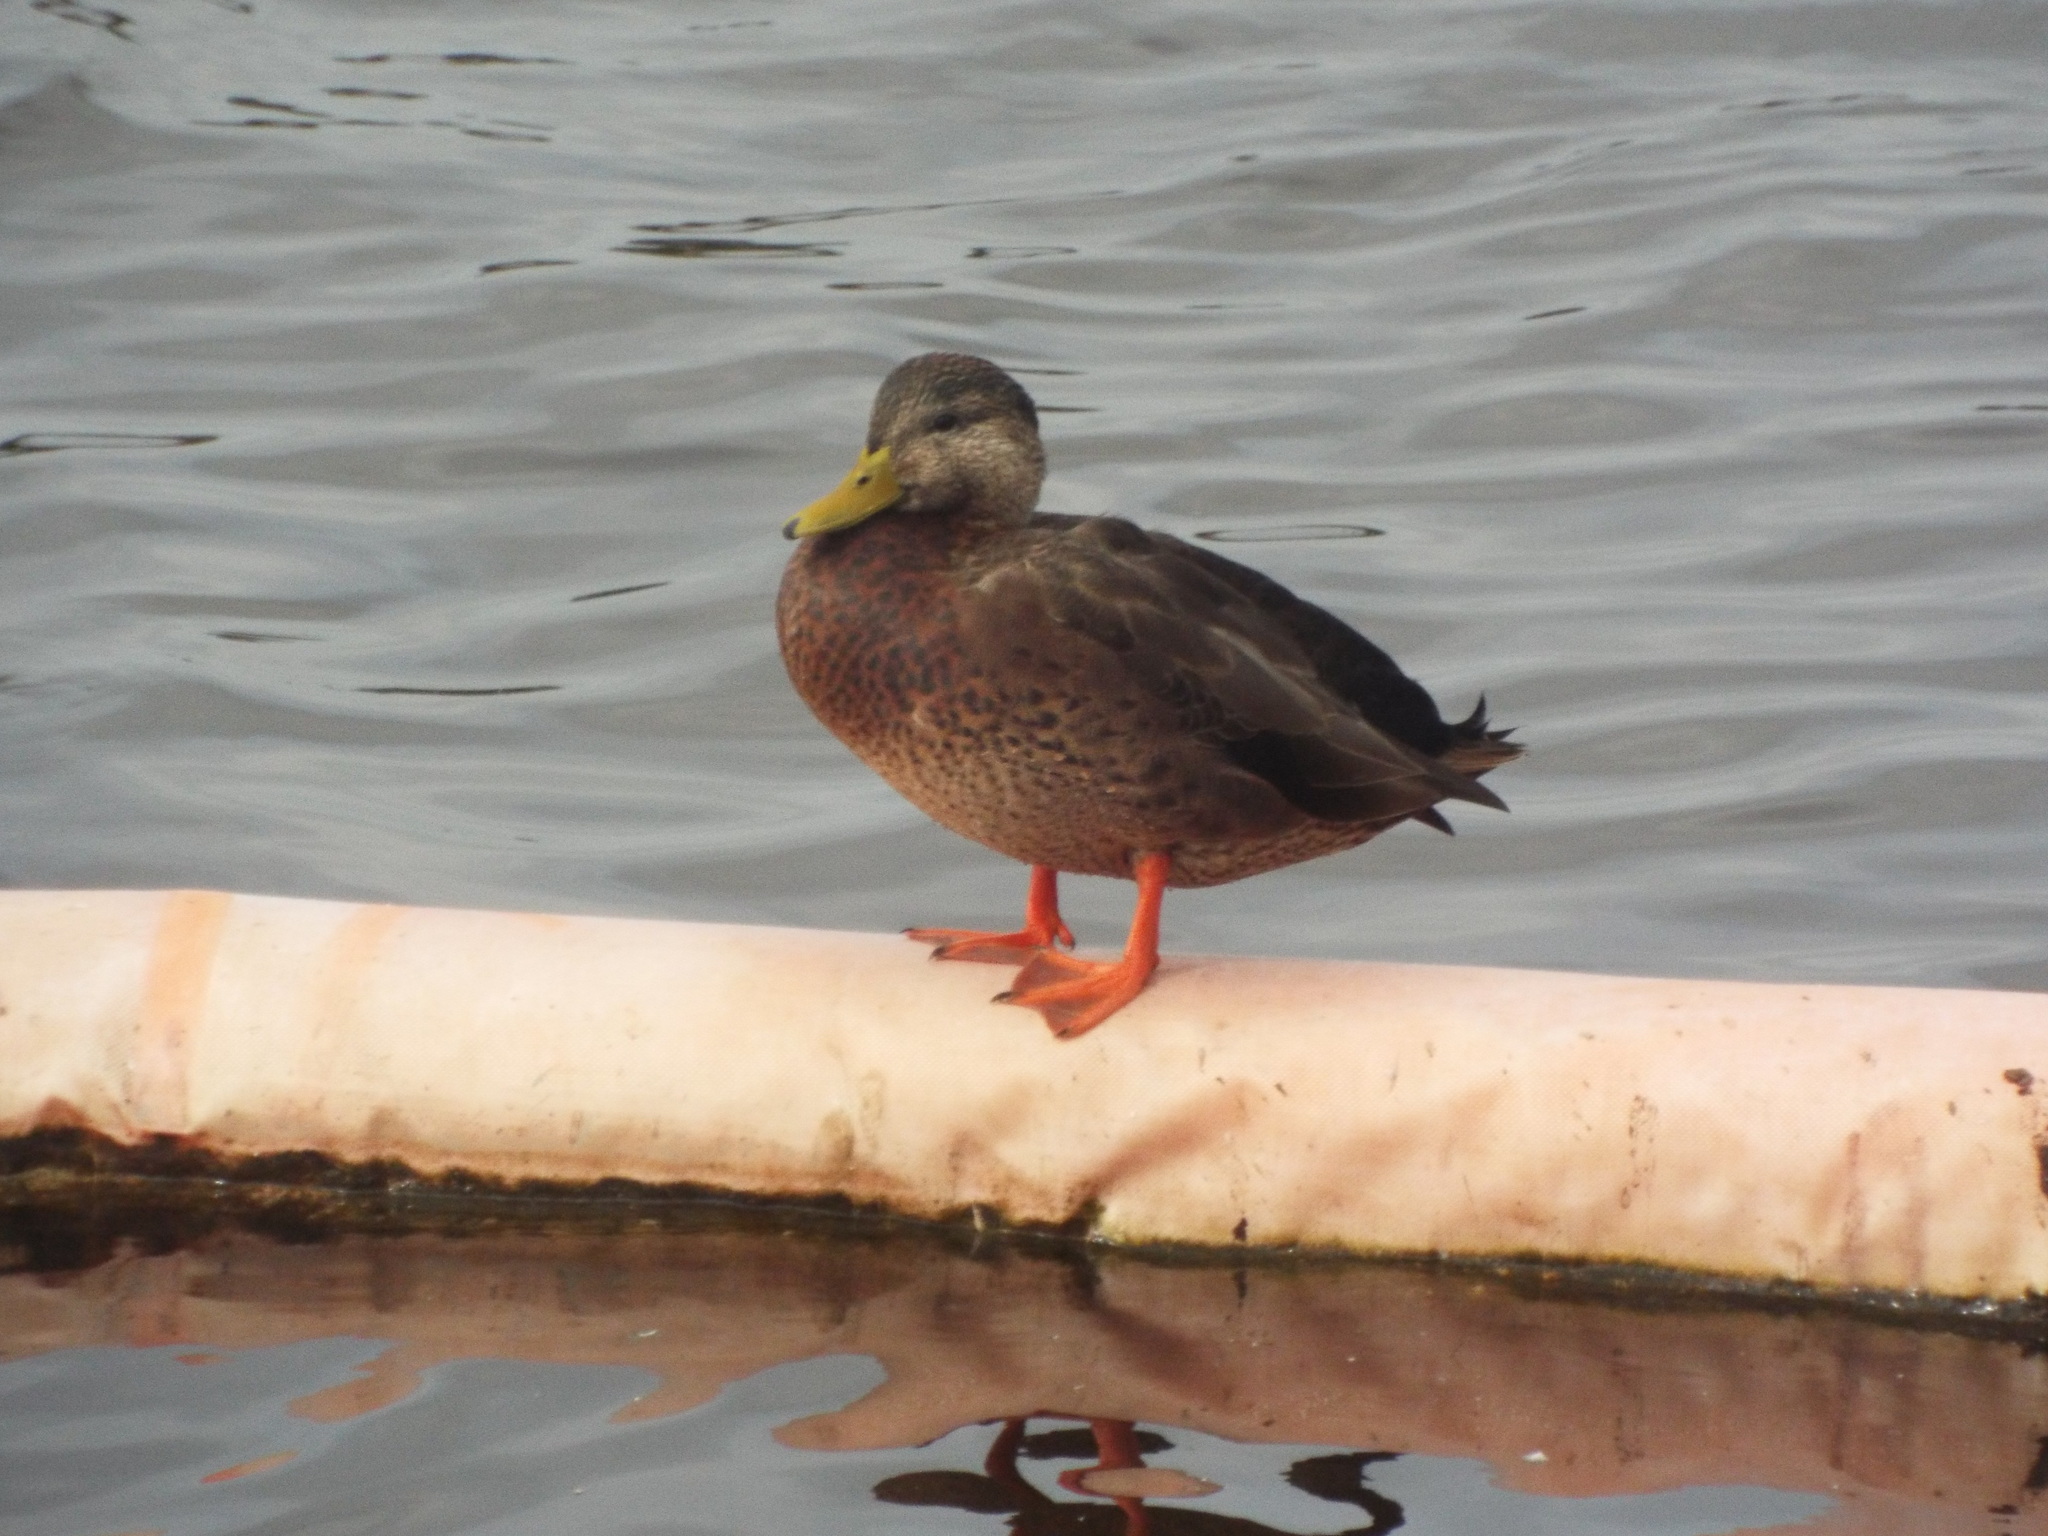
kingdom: Animalia
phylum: Chordata
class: Aves
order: Anseriformes
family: Anatidae
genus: Anas
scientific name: Anas
